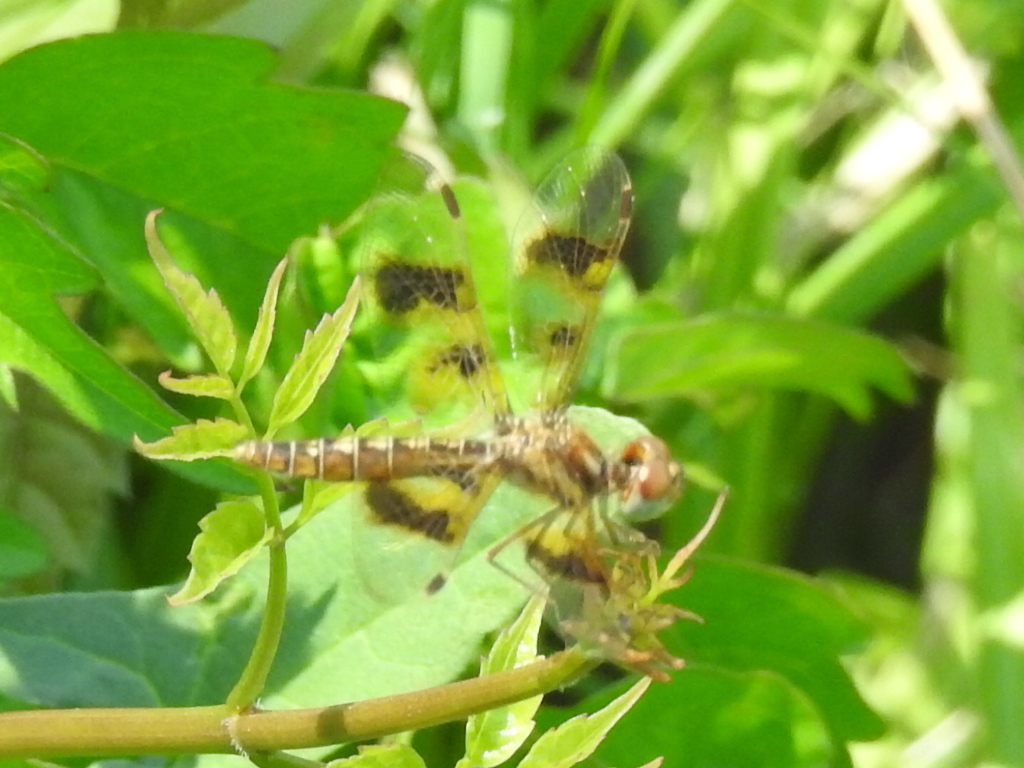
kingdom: Animalia
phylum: Arthropoda
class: Insecta
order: Odonata
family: Libellulidae
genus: Perithemis
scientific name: Perithemis tenera
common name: Eastern amberwing
